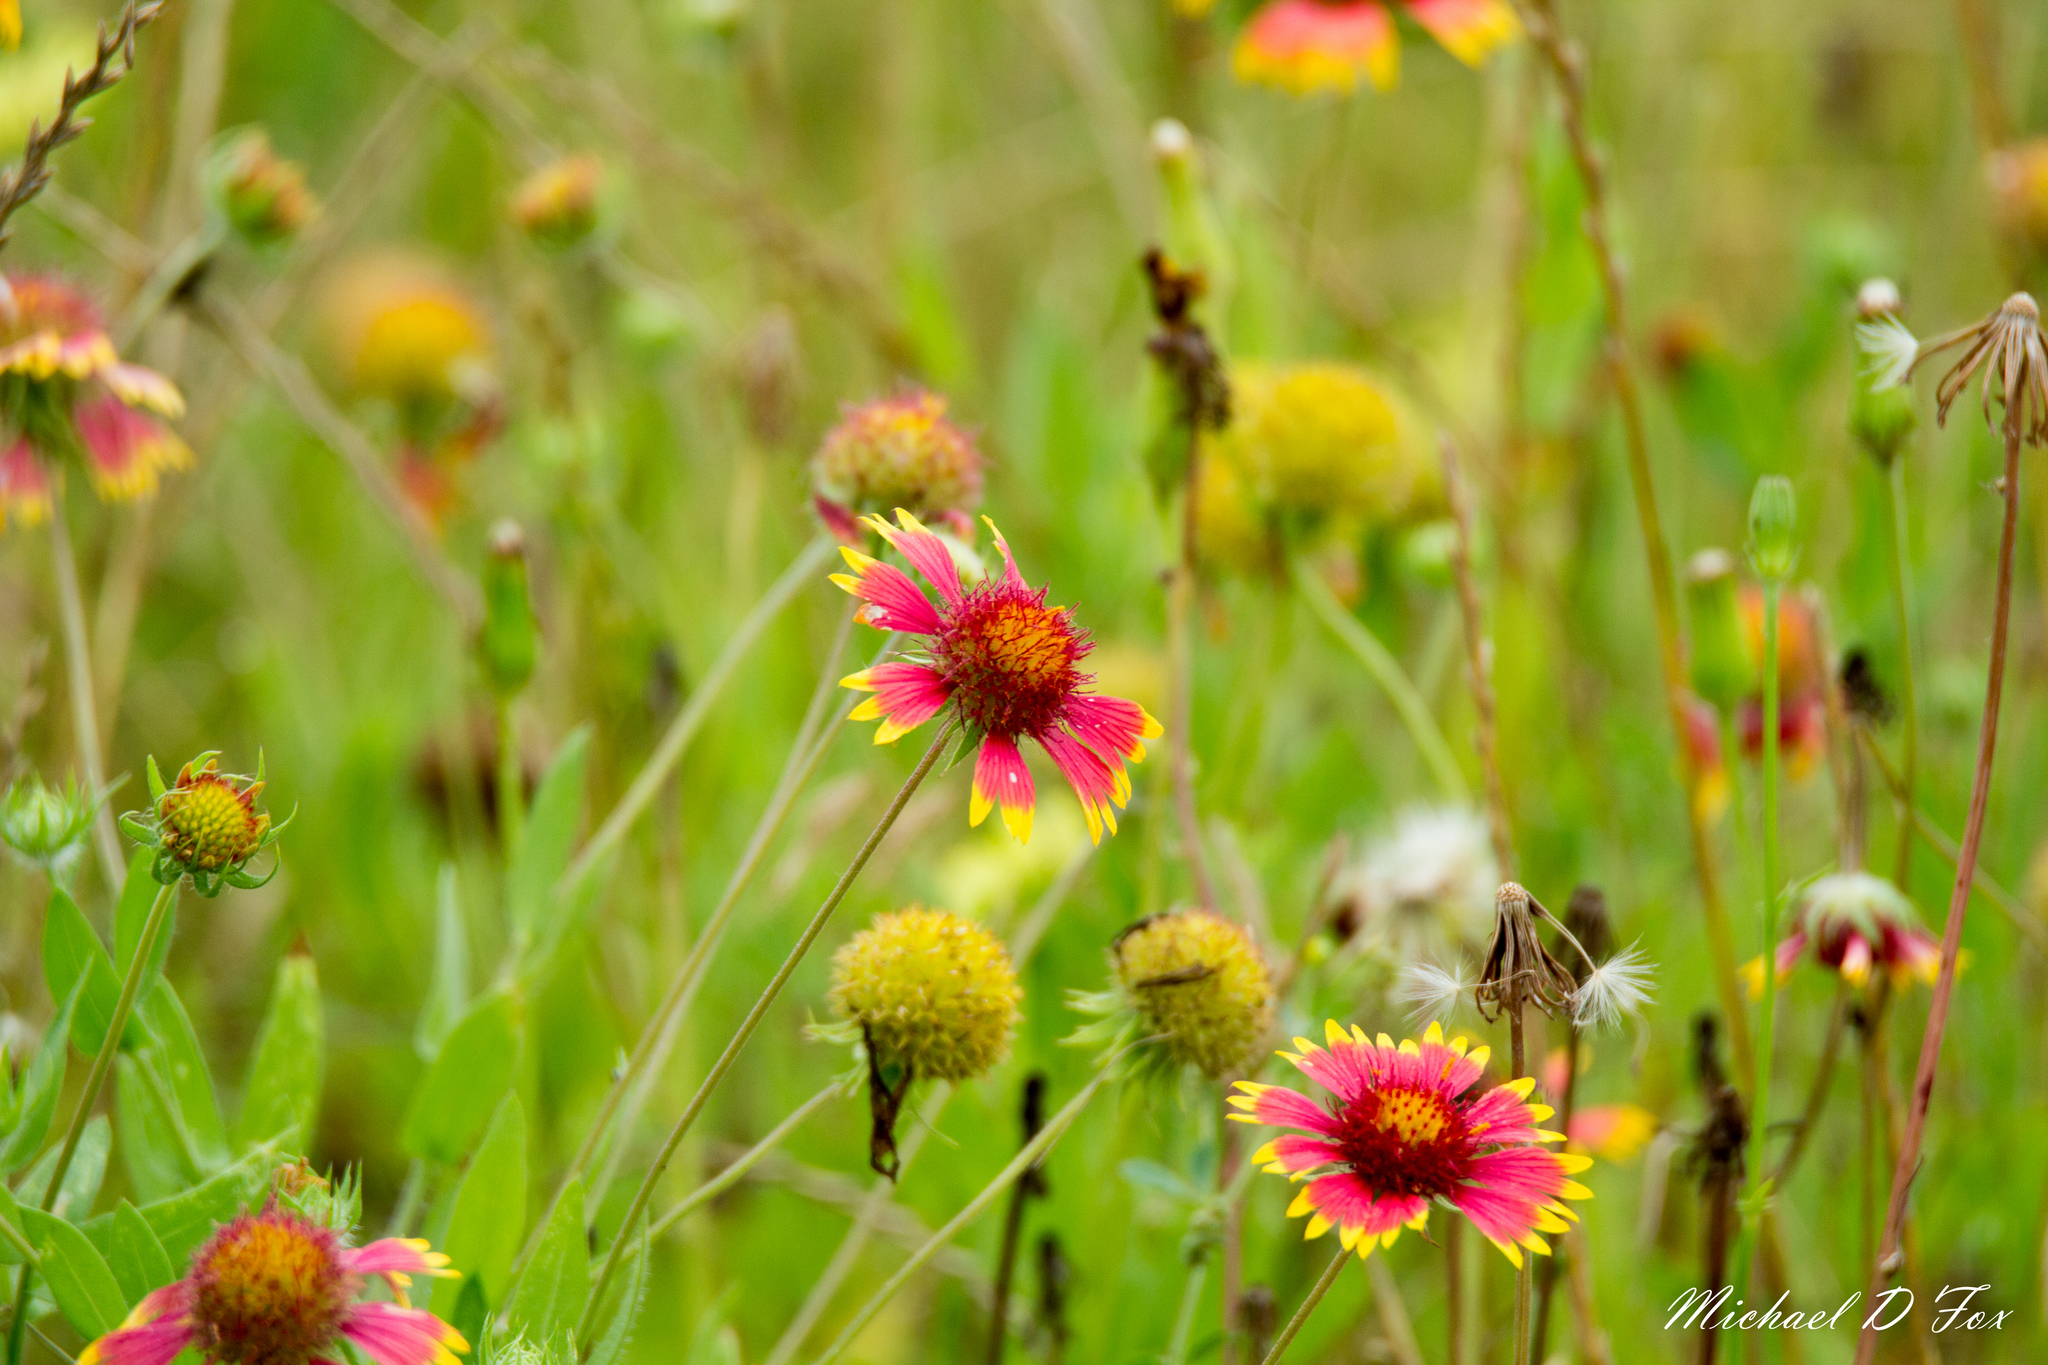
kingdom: Plantae
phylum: Tracheophyta
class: Magnoliopsida
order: Asterales
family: Asteraceae
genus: Gaillardia
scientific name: Gaillardia pulchella
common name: Firewheel
